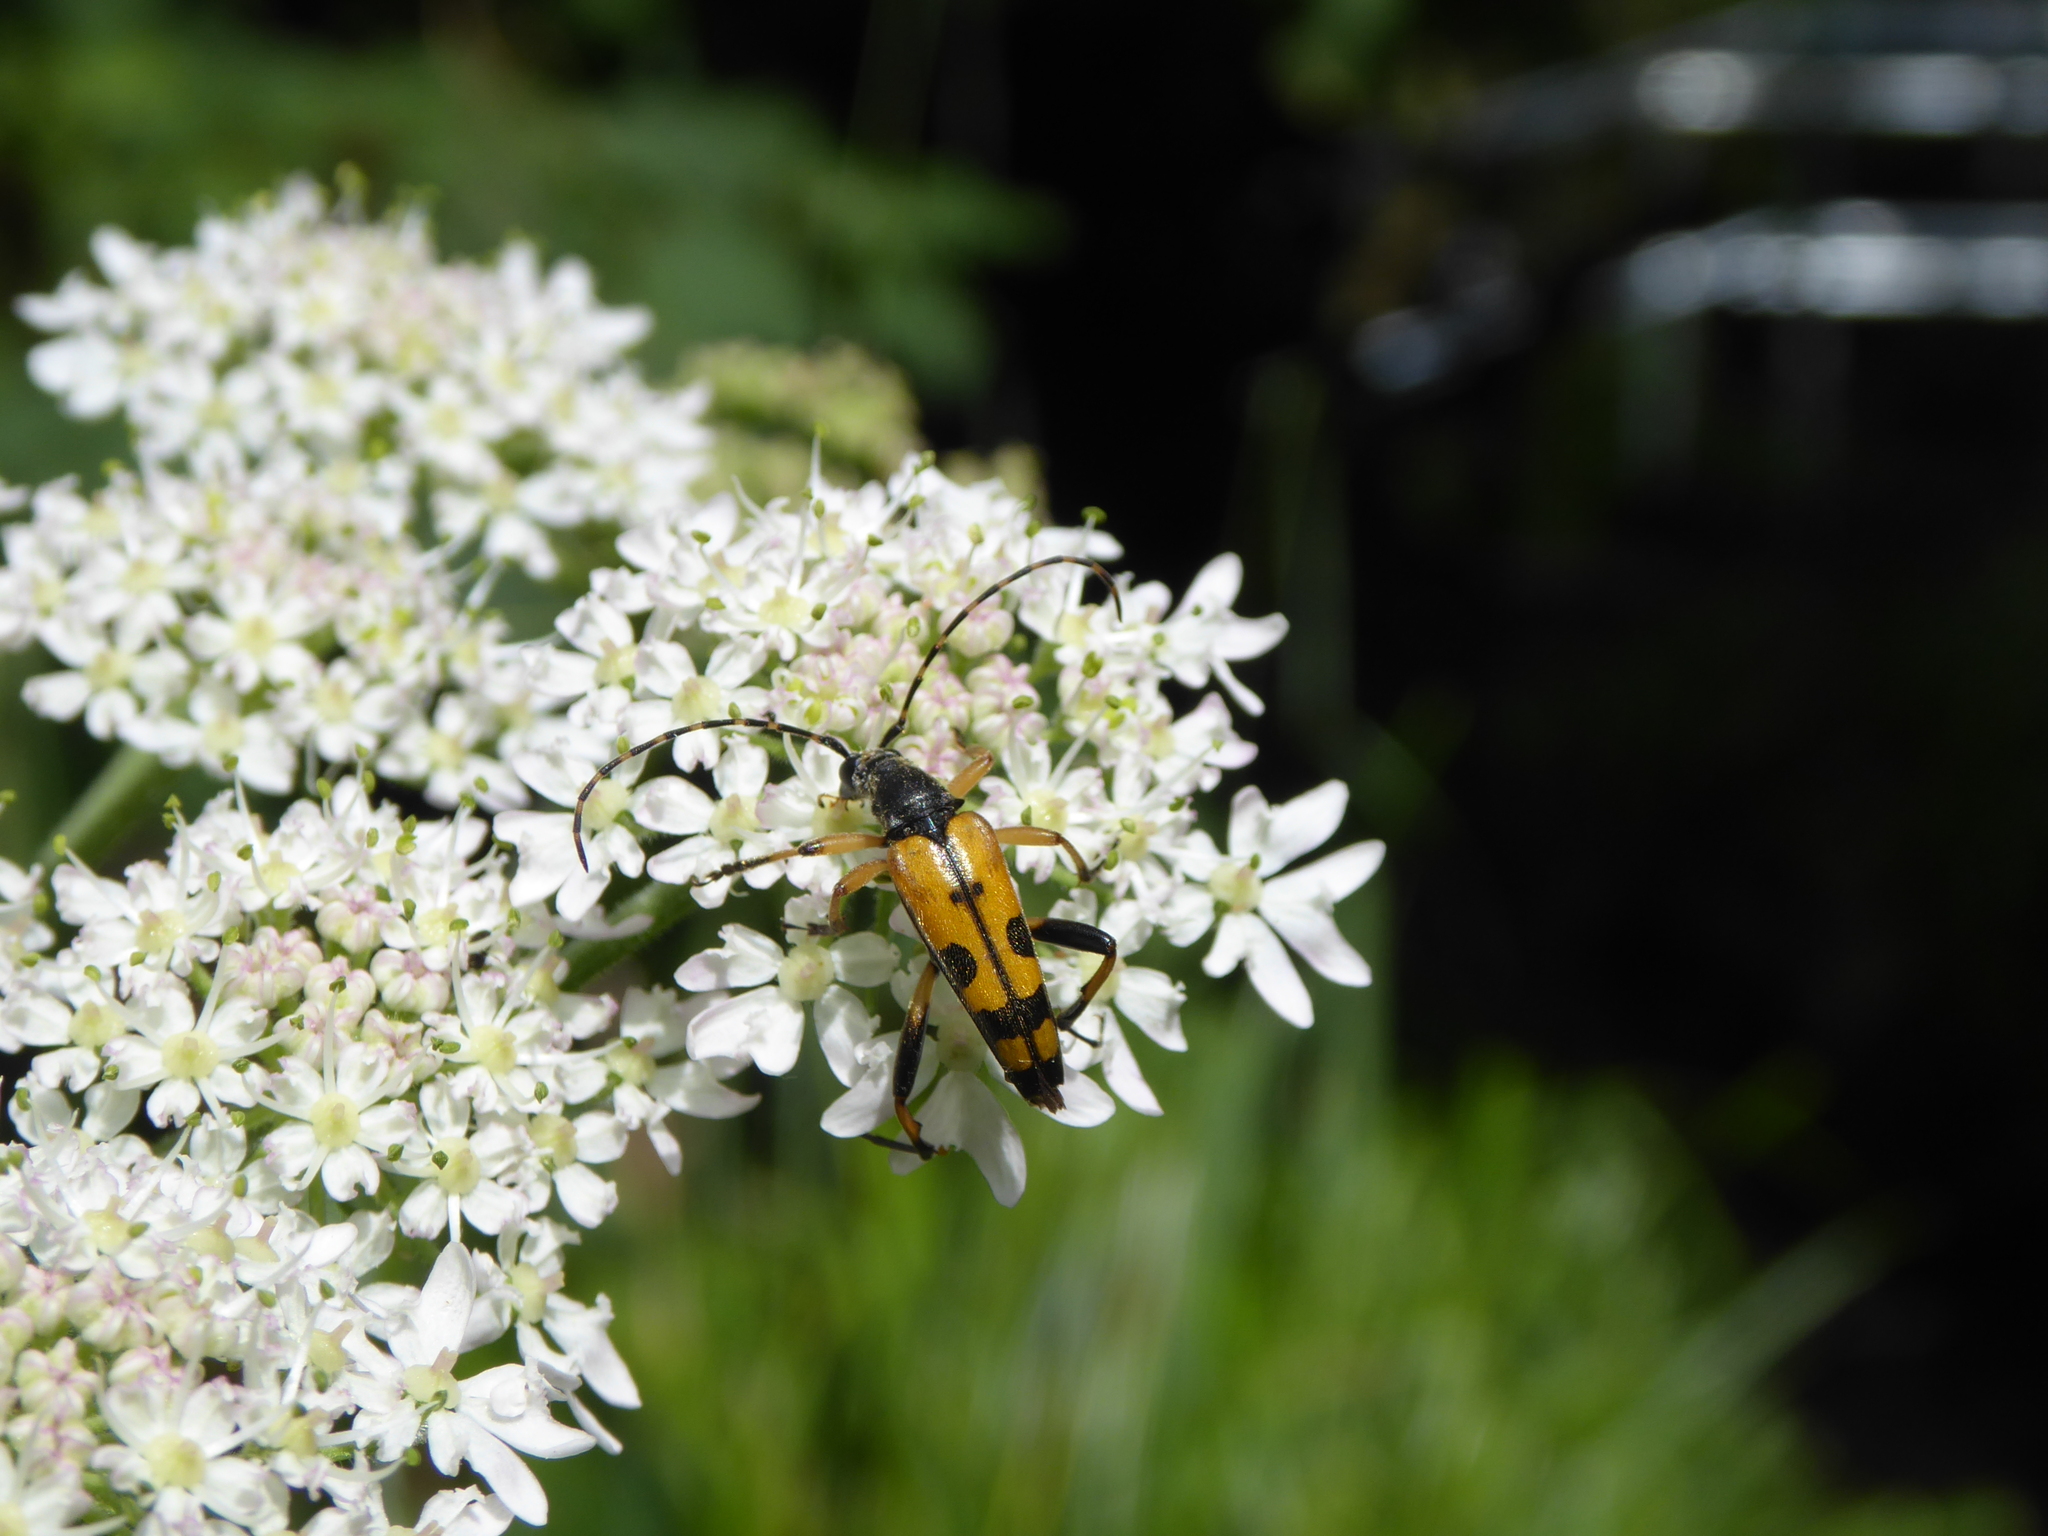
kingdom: Animalia
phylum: Arthropoda
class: Insecta
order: Coleoptera
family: Cerambycidae
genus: Rutpela
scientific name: Rutpela maculata
